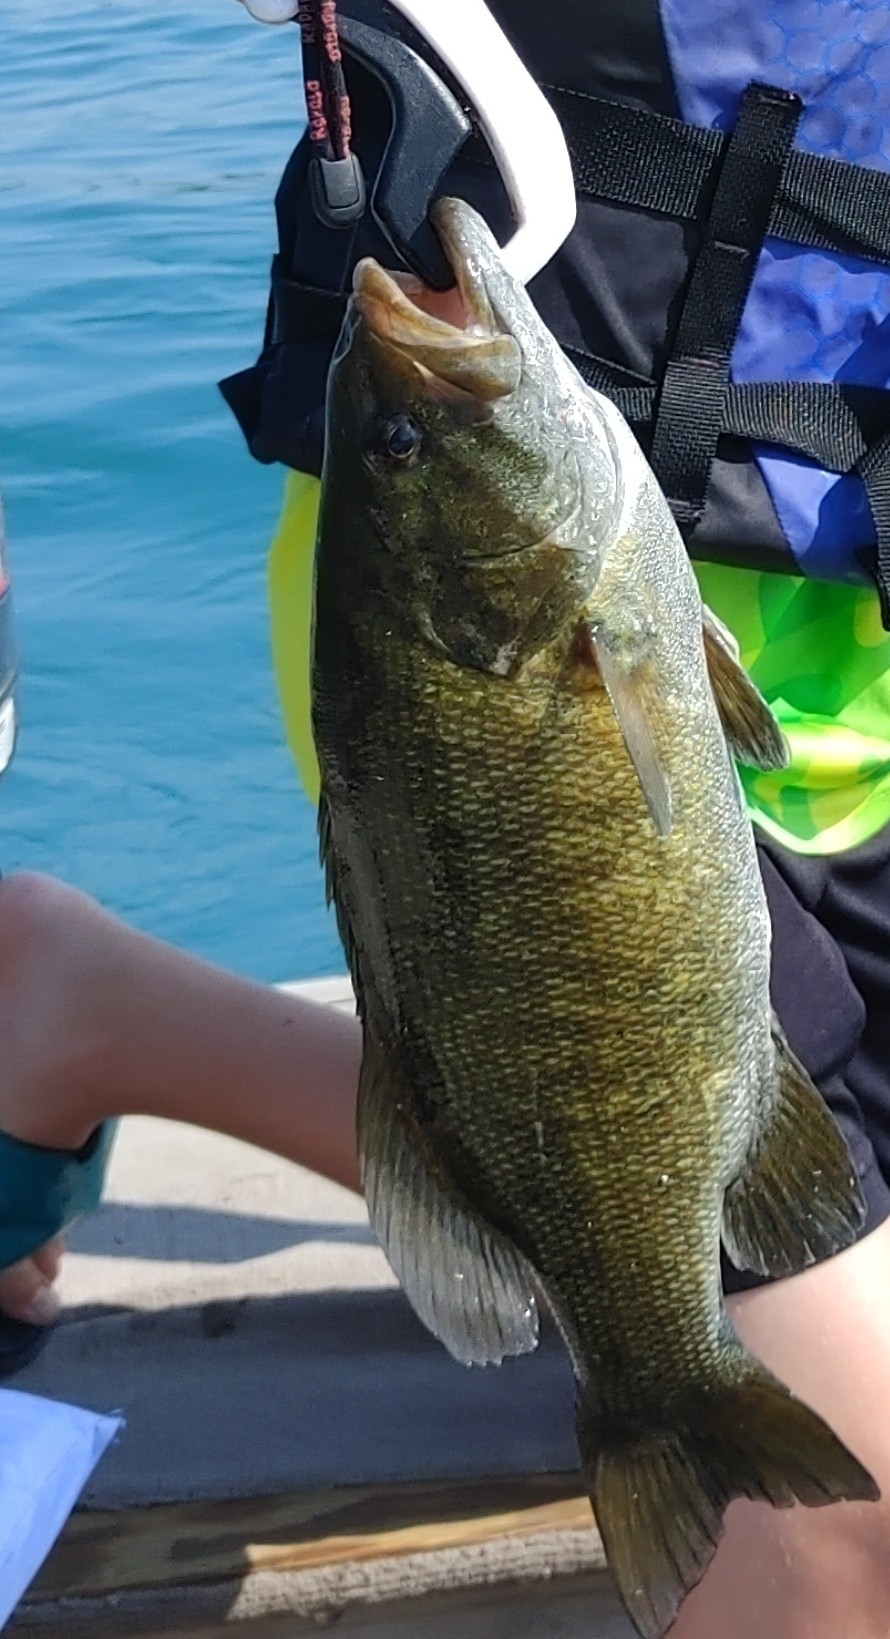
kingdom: Animalia
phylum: Chordata
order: Perciformes
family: Centrarchidae
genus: Micropterus
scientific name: Micropterus dolomieu
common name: Smallmouth bass
